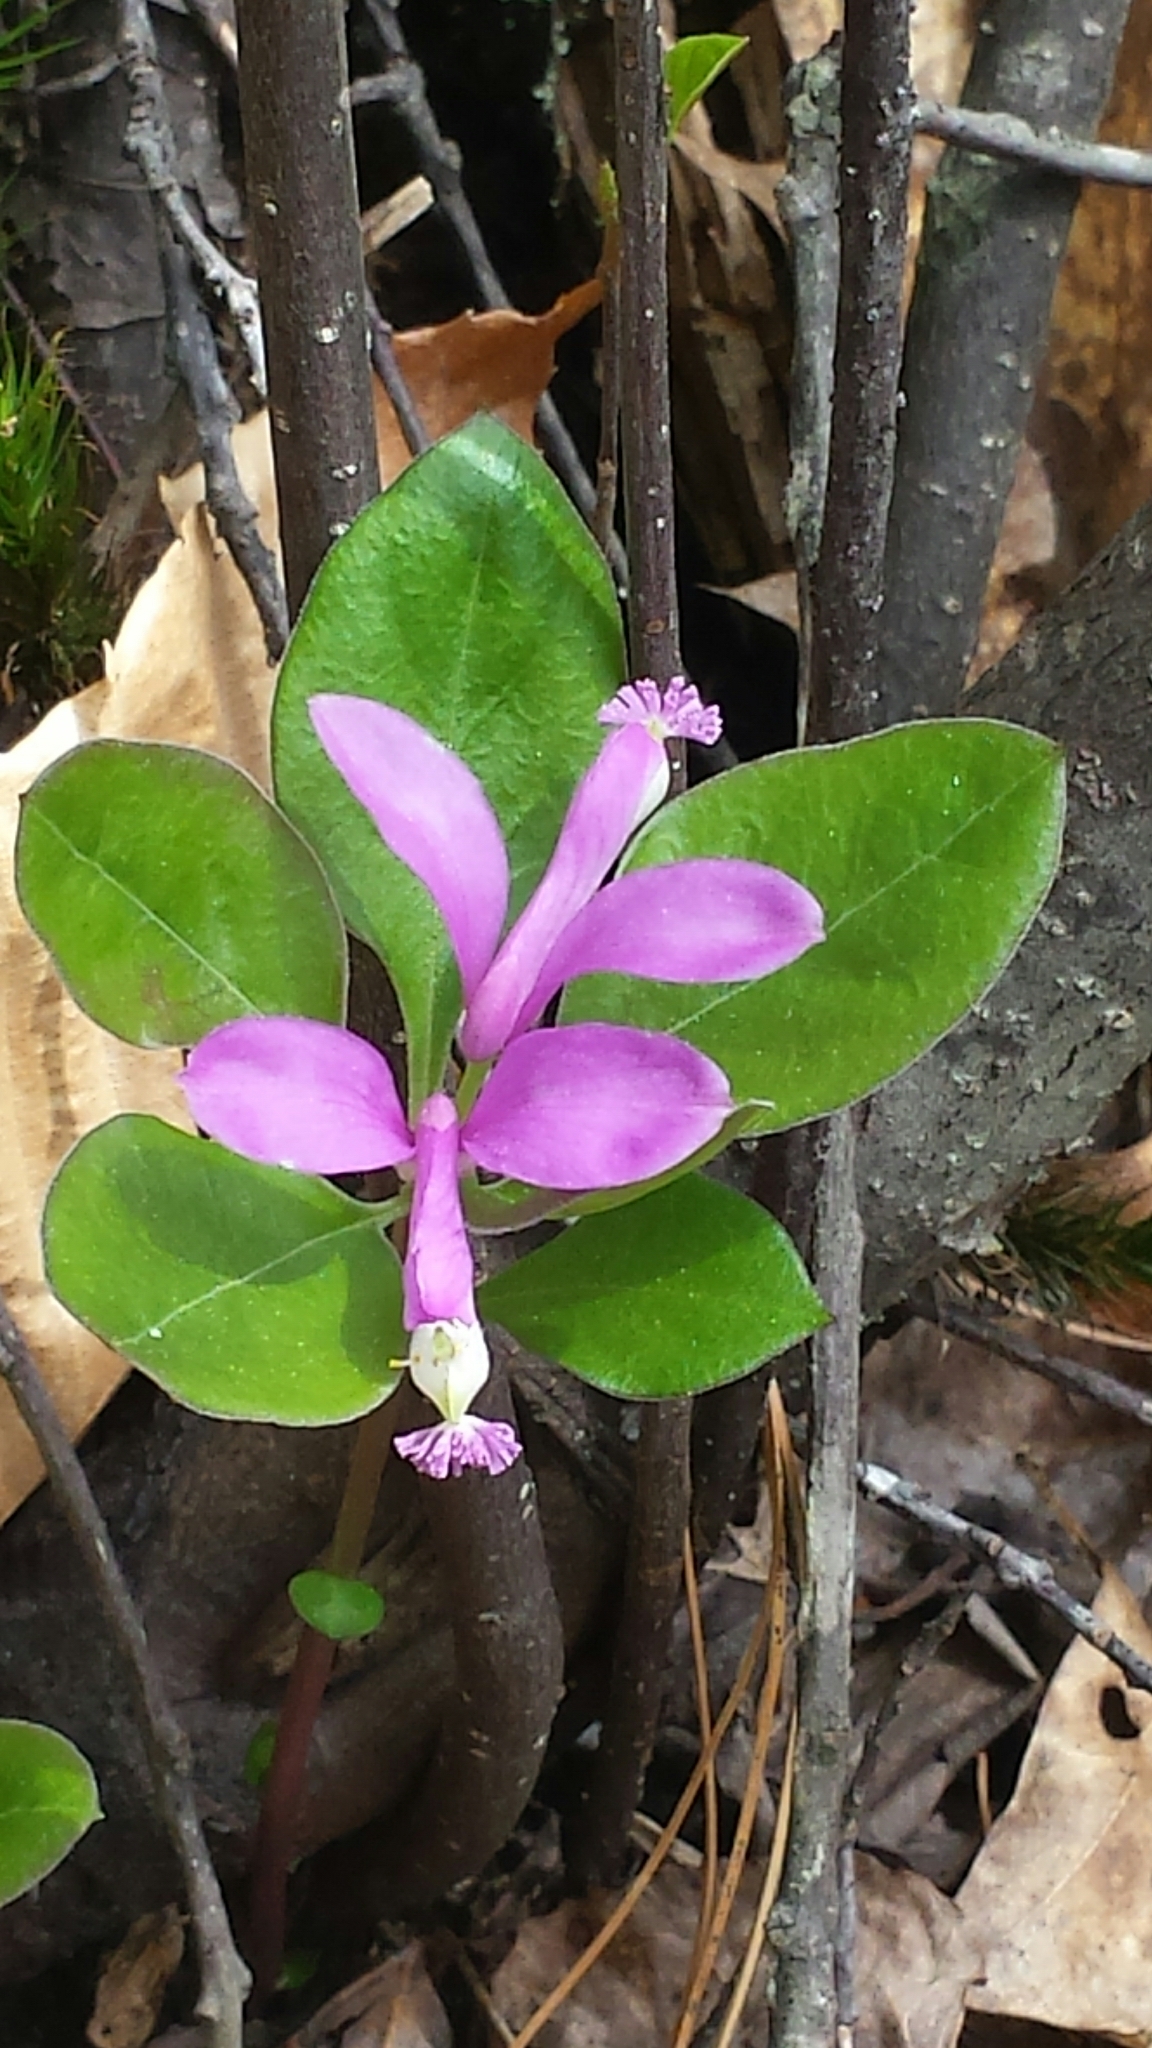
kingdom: Plantae
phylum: Tracheophyta
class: Magnoliopsida
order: Fabales
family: Polygalaceae
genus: Polygaloides
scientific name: Polygaloides paucifolia
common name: Bird-on-the-wing
